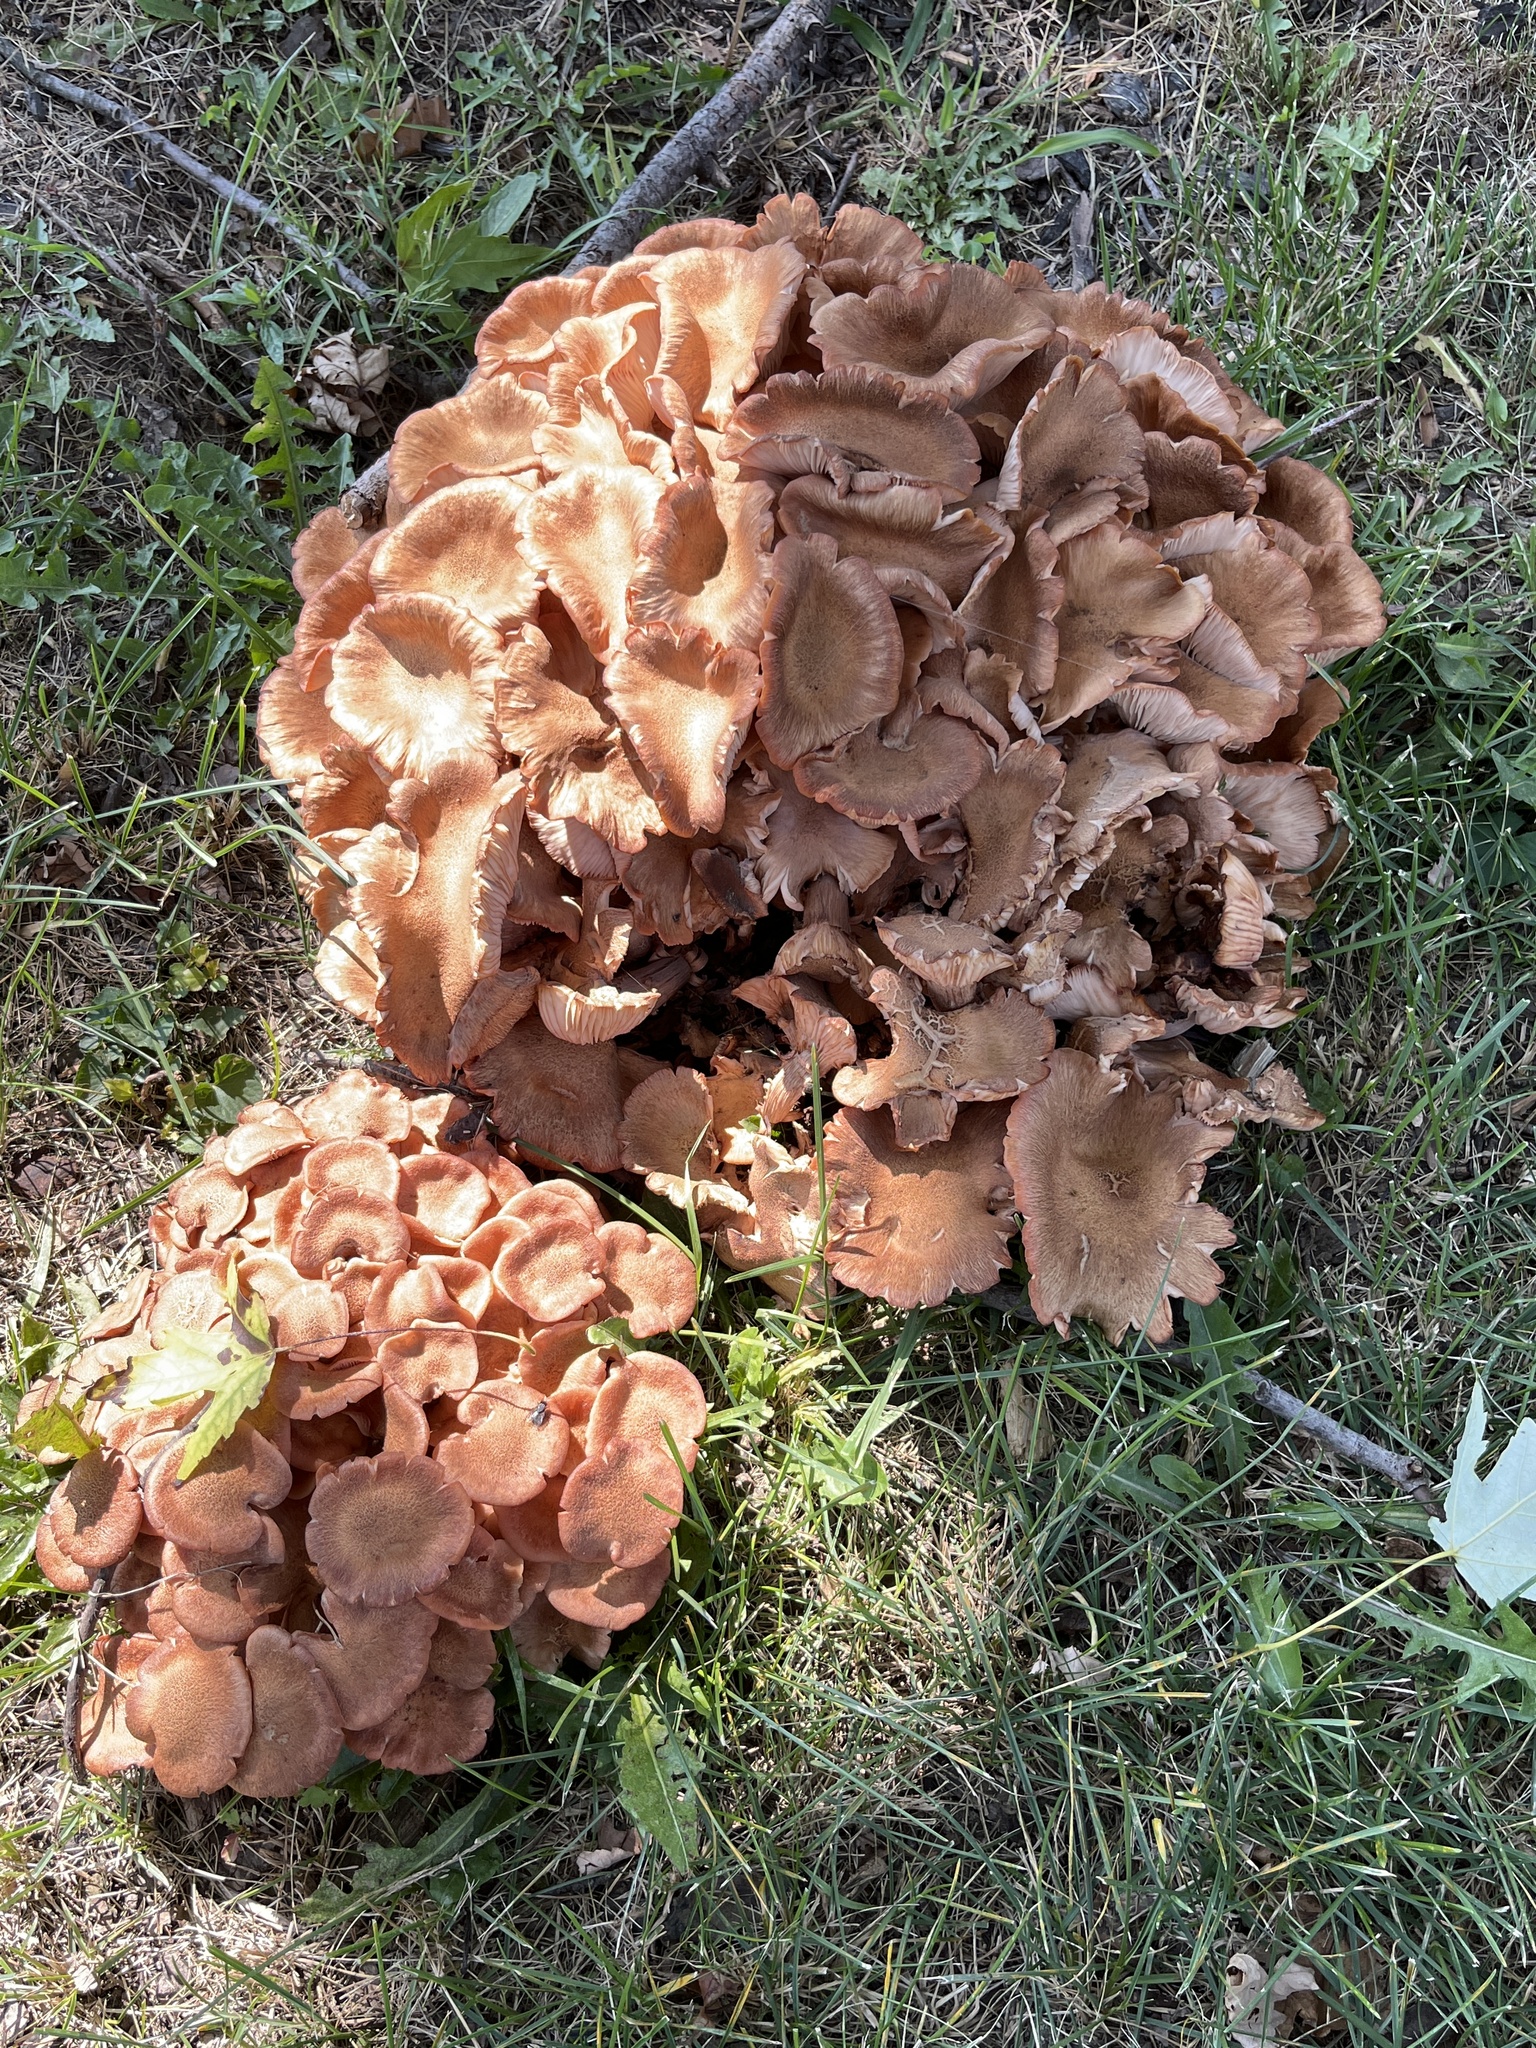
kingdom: Fungi
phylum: Basidiomycota
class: Agaricomycetes
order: Agaricales
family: Physalacriaceae
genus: Desarmillaria
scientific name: Desarmillaria caespitosa
